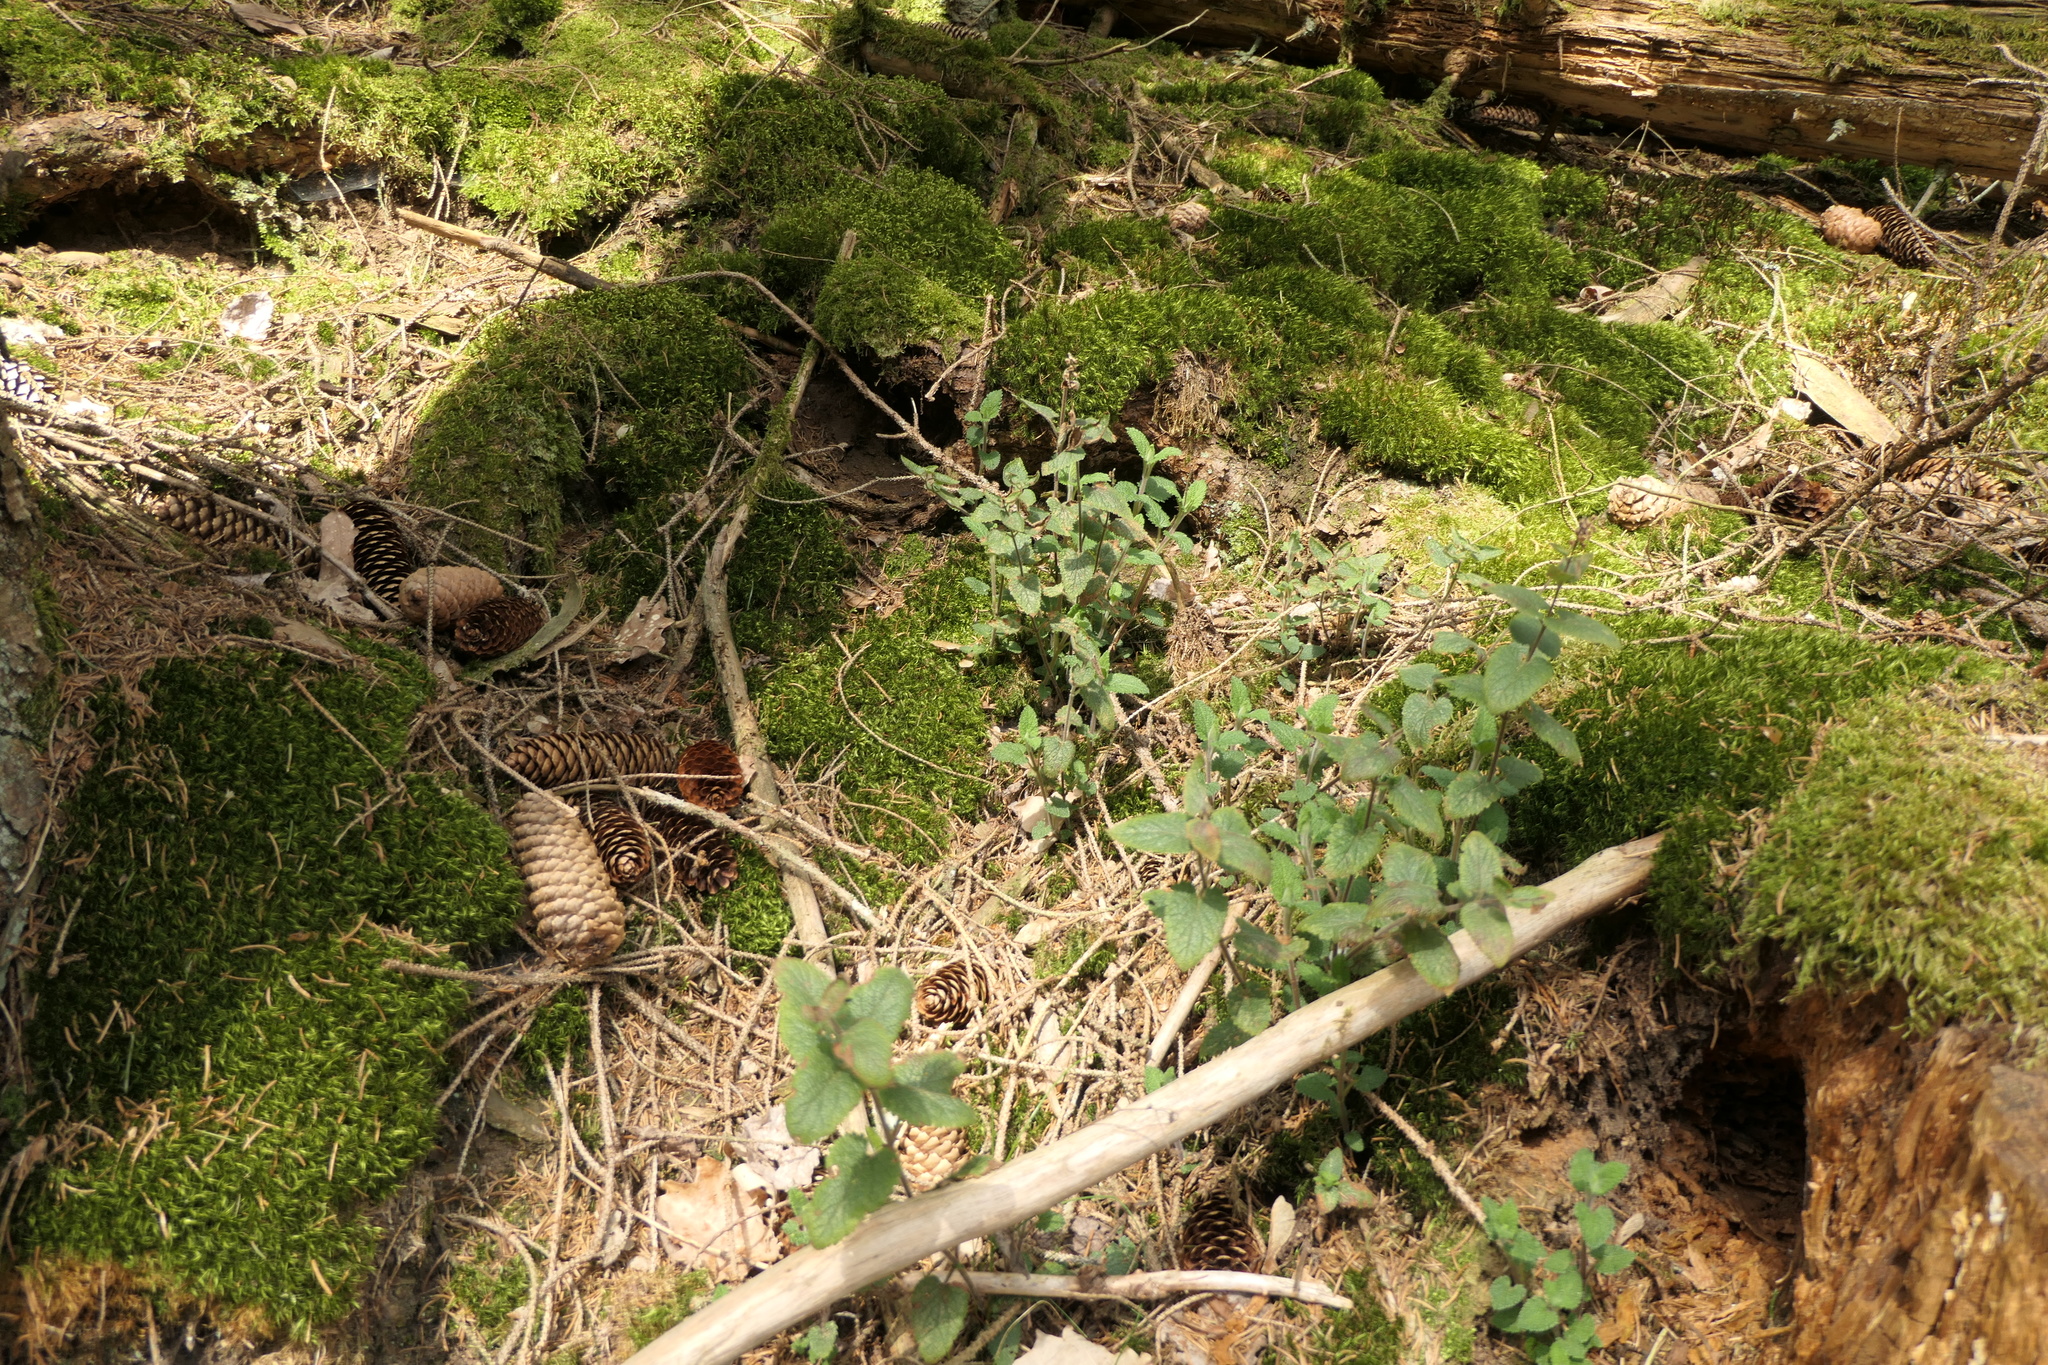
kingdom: Plantae
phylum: Tracheophyta
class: Magnoliopsida
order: Lamiales
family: Lamiaceae
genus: Teucrium
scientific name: Teucrium scorodonia
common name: Woodland germander
